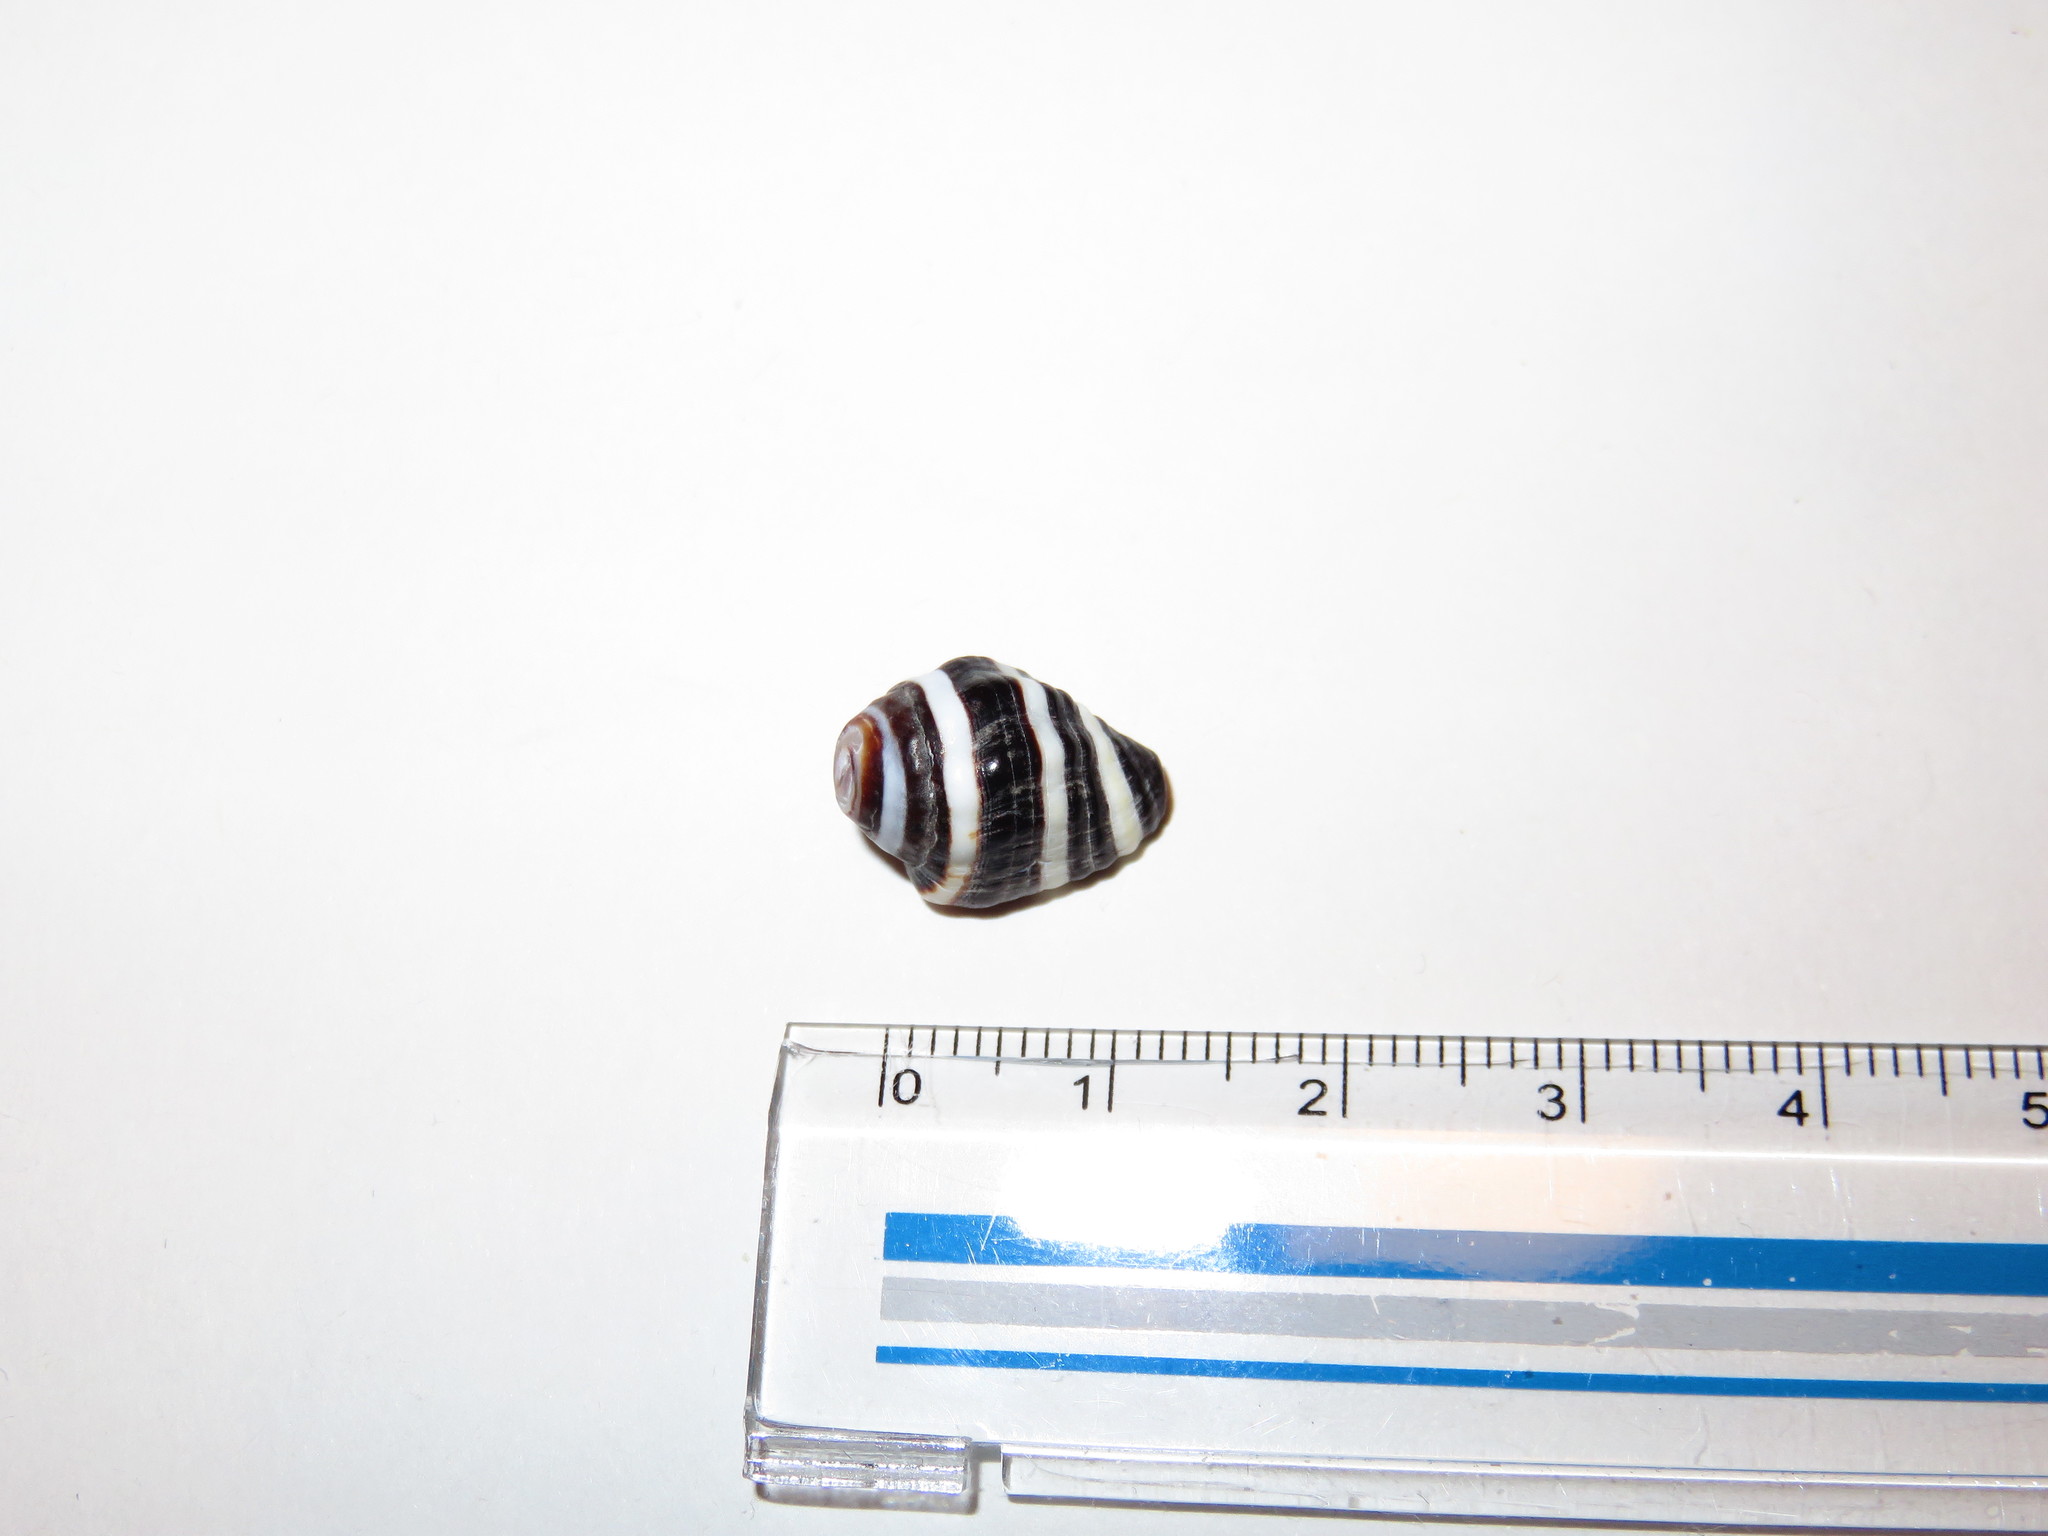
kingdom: Animalia
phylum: Mollusca
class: Gastropoda
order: Neogastropoda
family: Pisaniidae
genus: Engina
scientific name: Engina mendicaria
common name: Bumble bee snail
